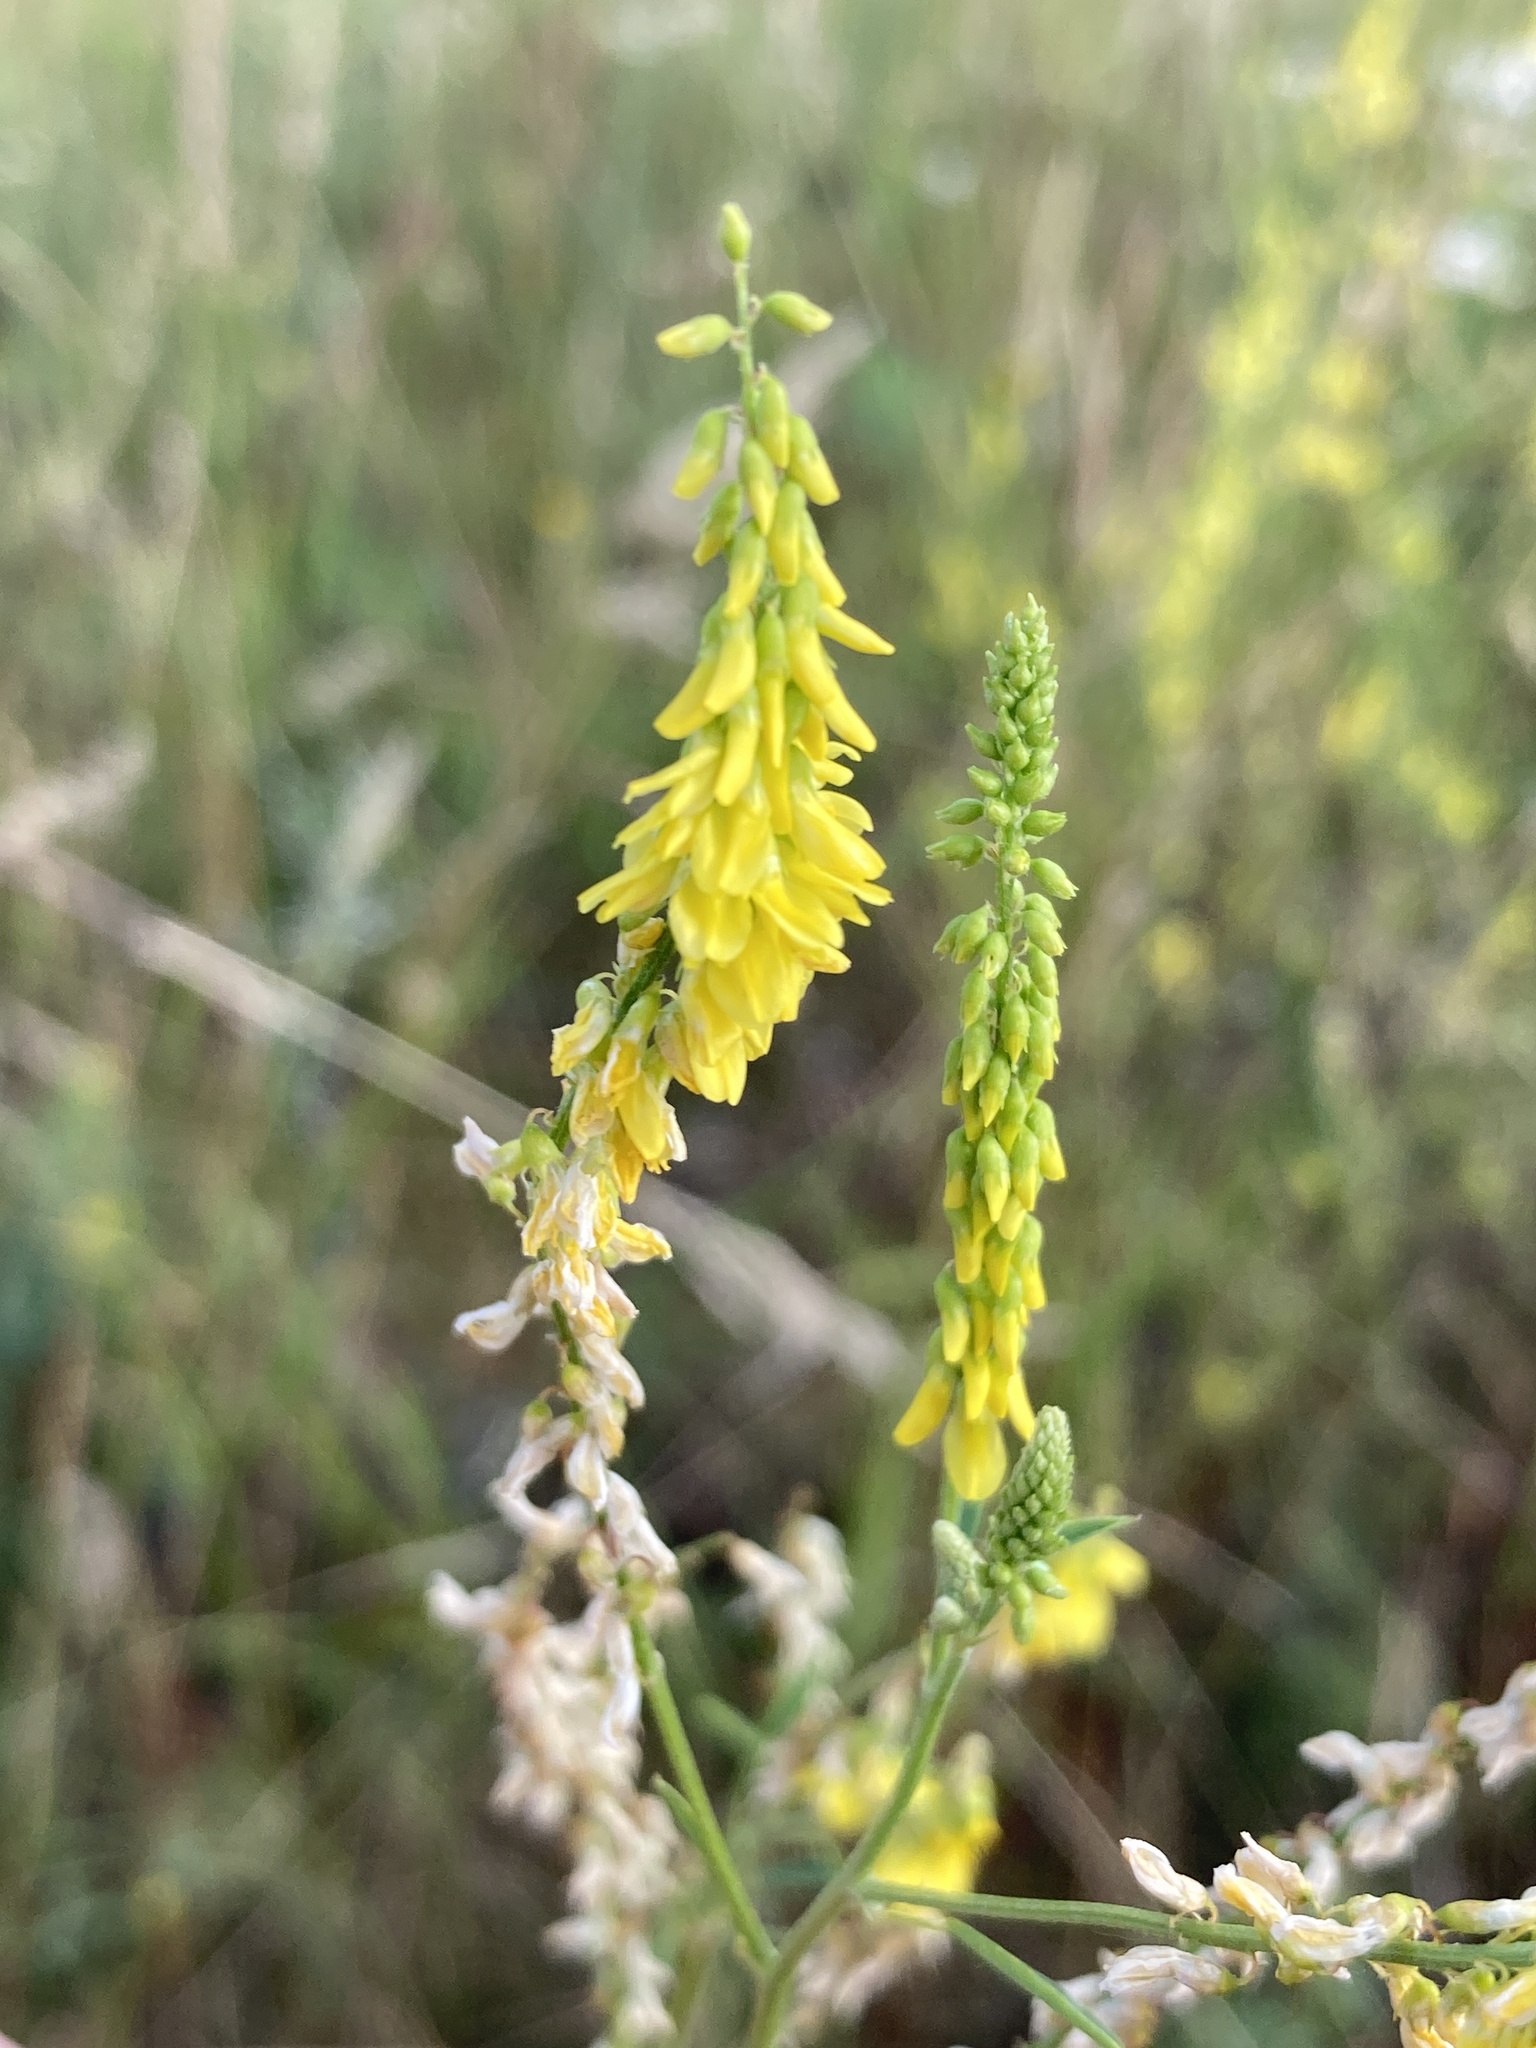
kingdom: Plantae
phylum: Tracheophyta
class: Magnoliopsida
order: Fabales
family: Fabaceae
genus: Melilotus
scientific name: Melilotus officinalis
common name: Sweetclover
